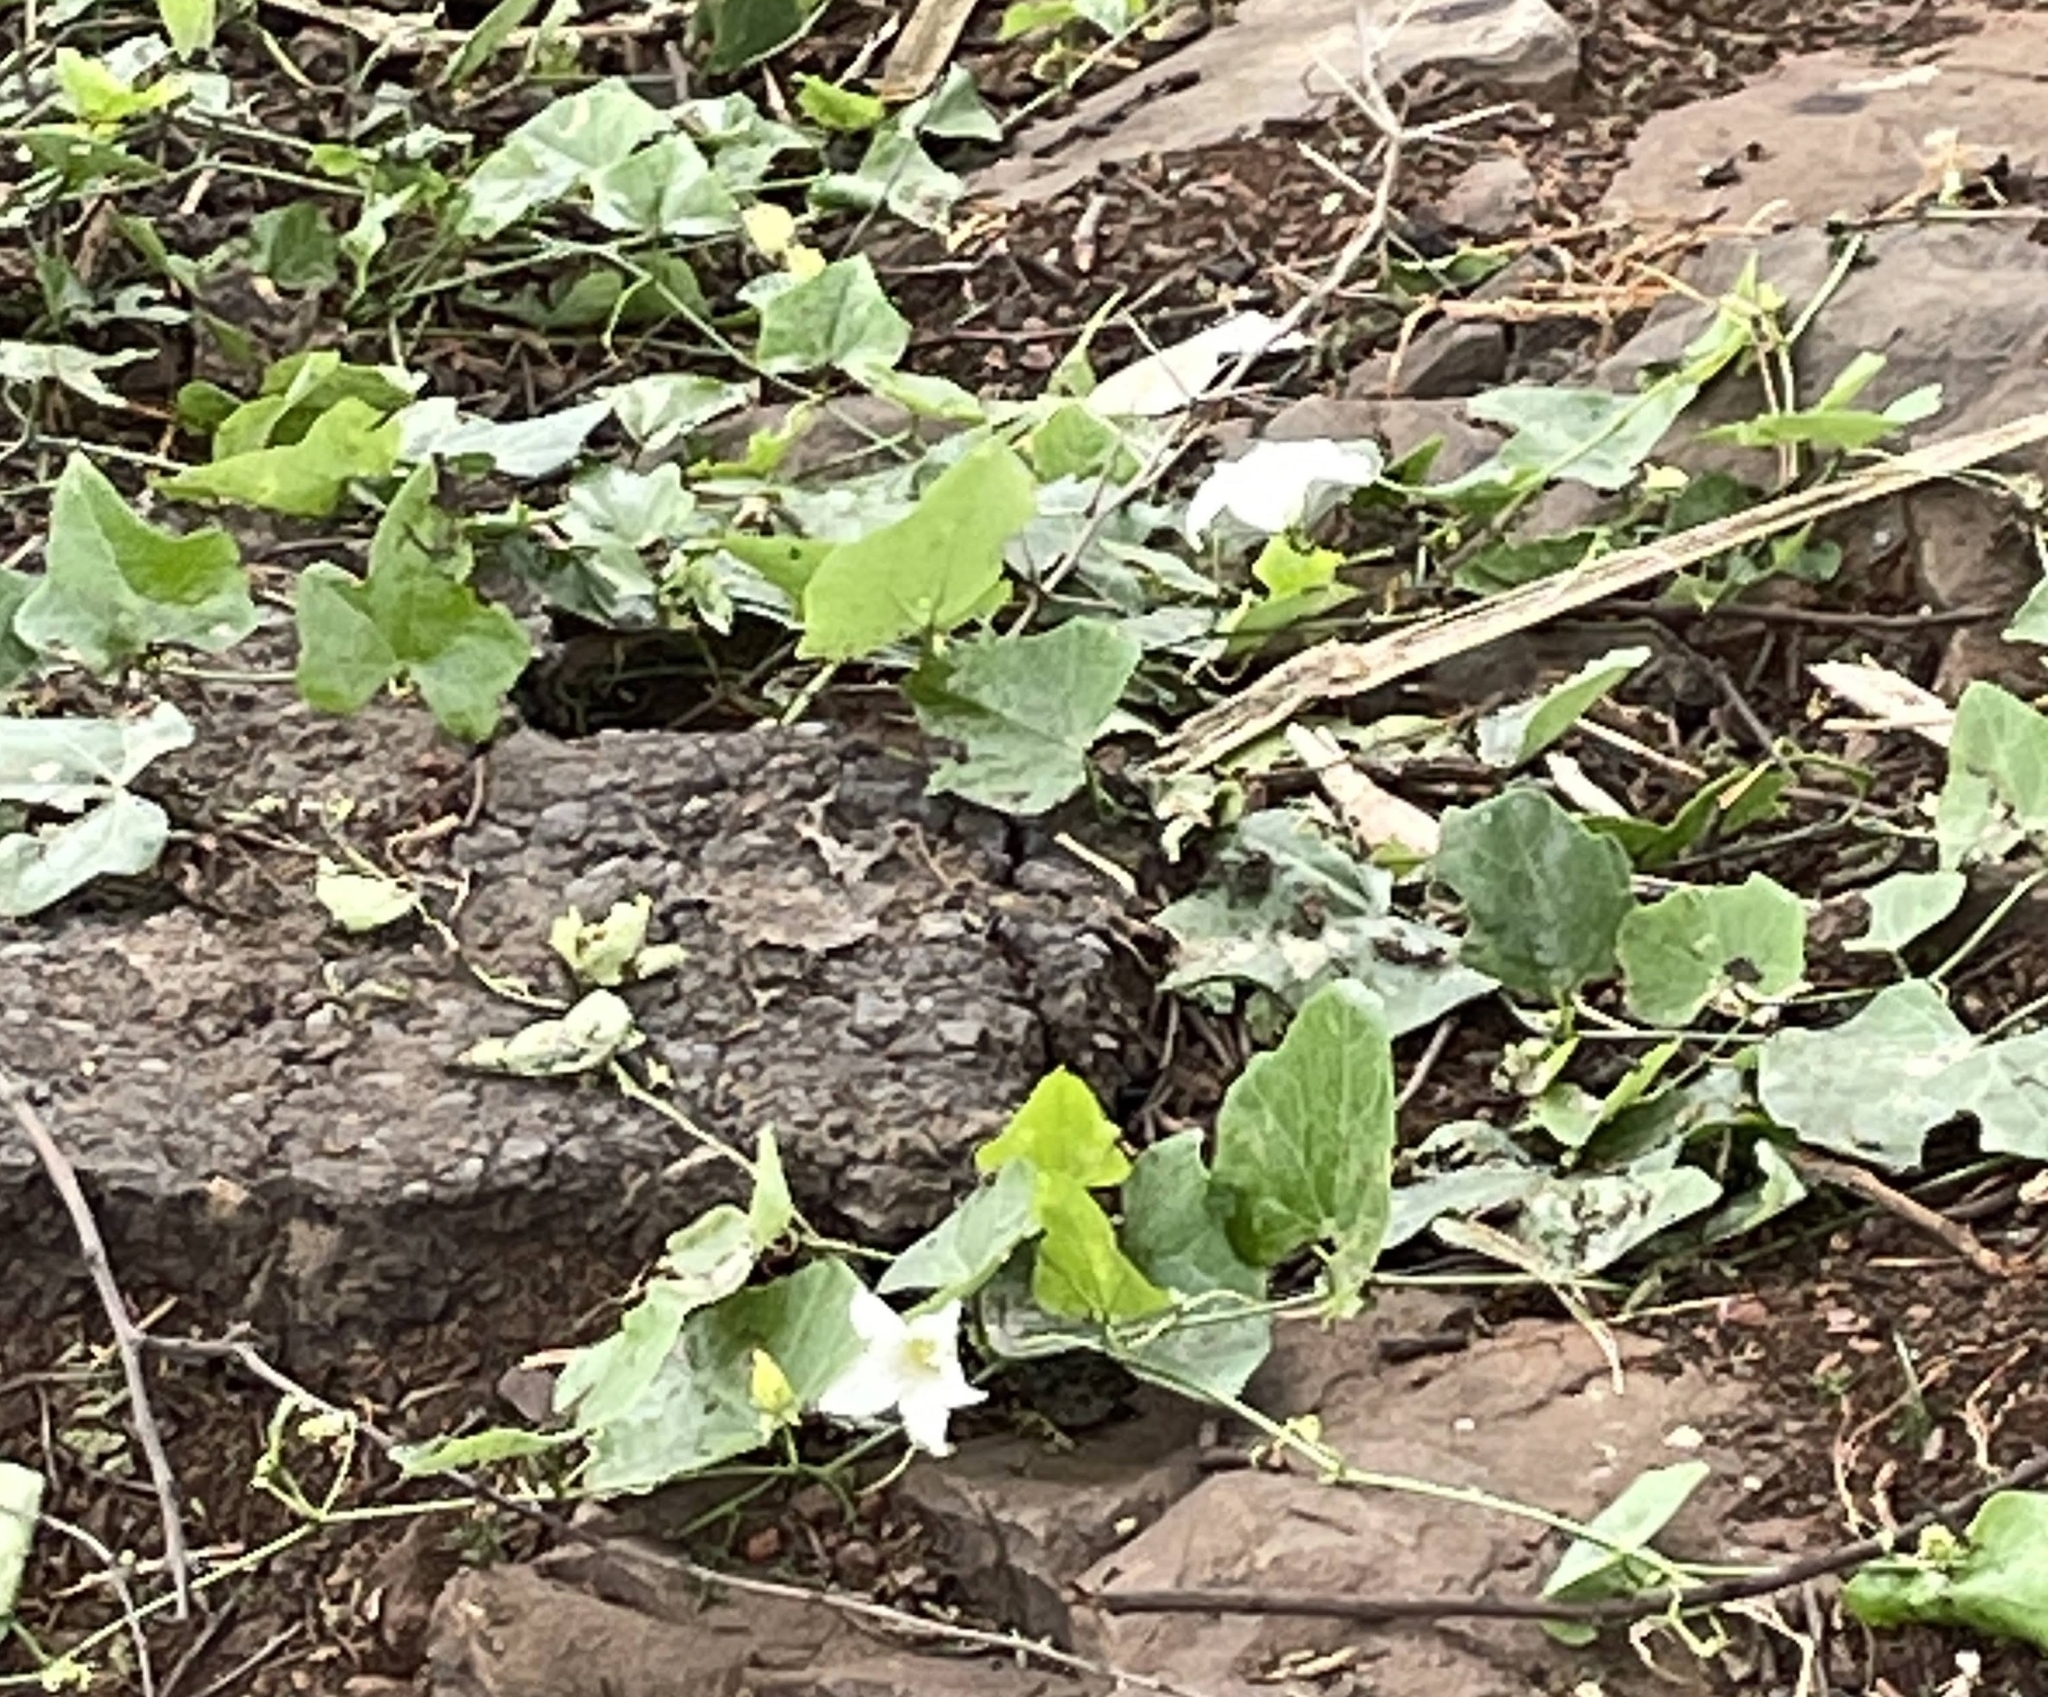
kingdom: Plantae
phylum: Tracheophyta
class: Magnoliopsida
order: Cucurbitales
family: Cucurbitaceae
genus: Coccinia
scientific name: Coccinia grandis
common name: Ivy gourd
